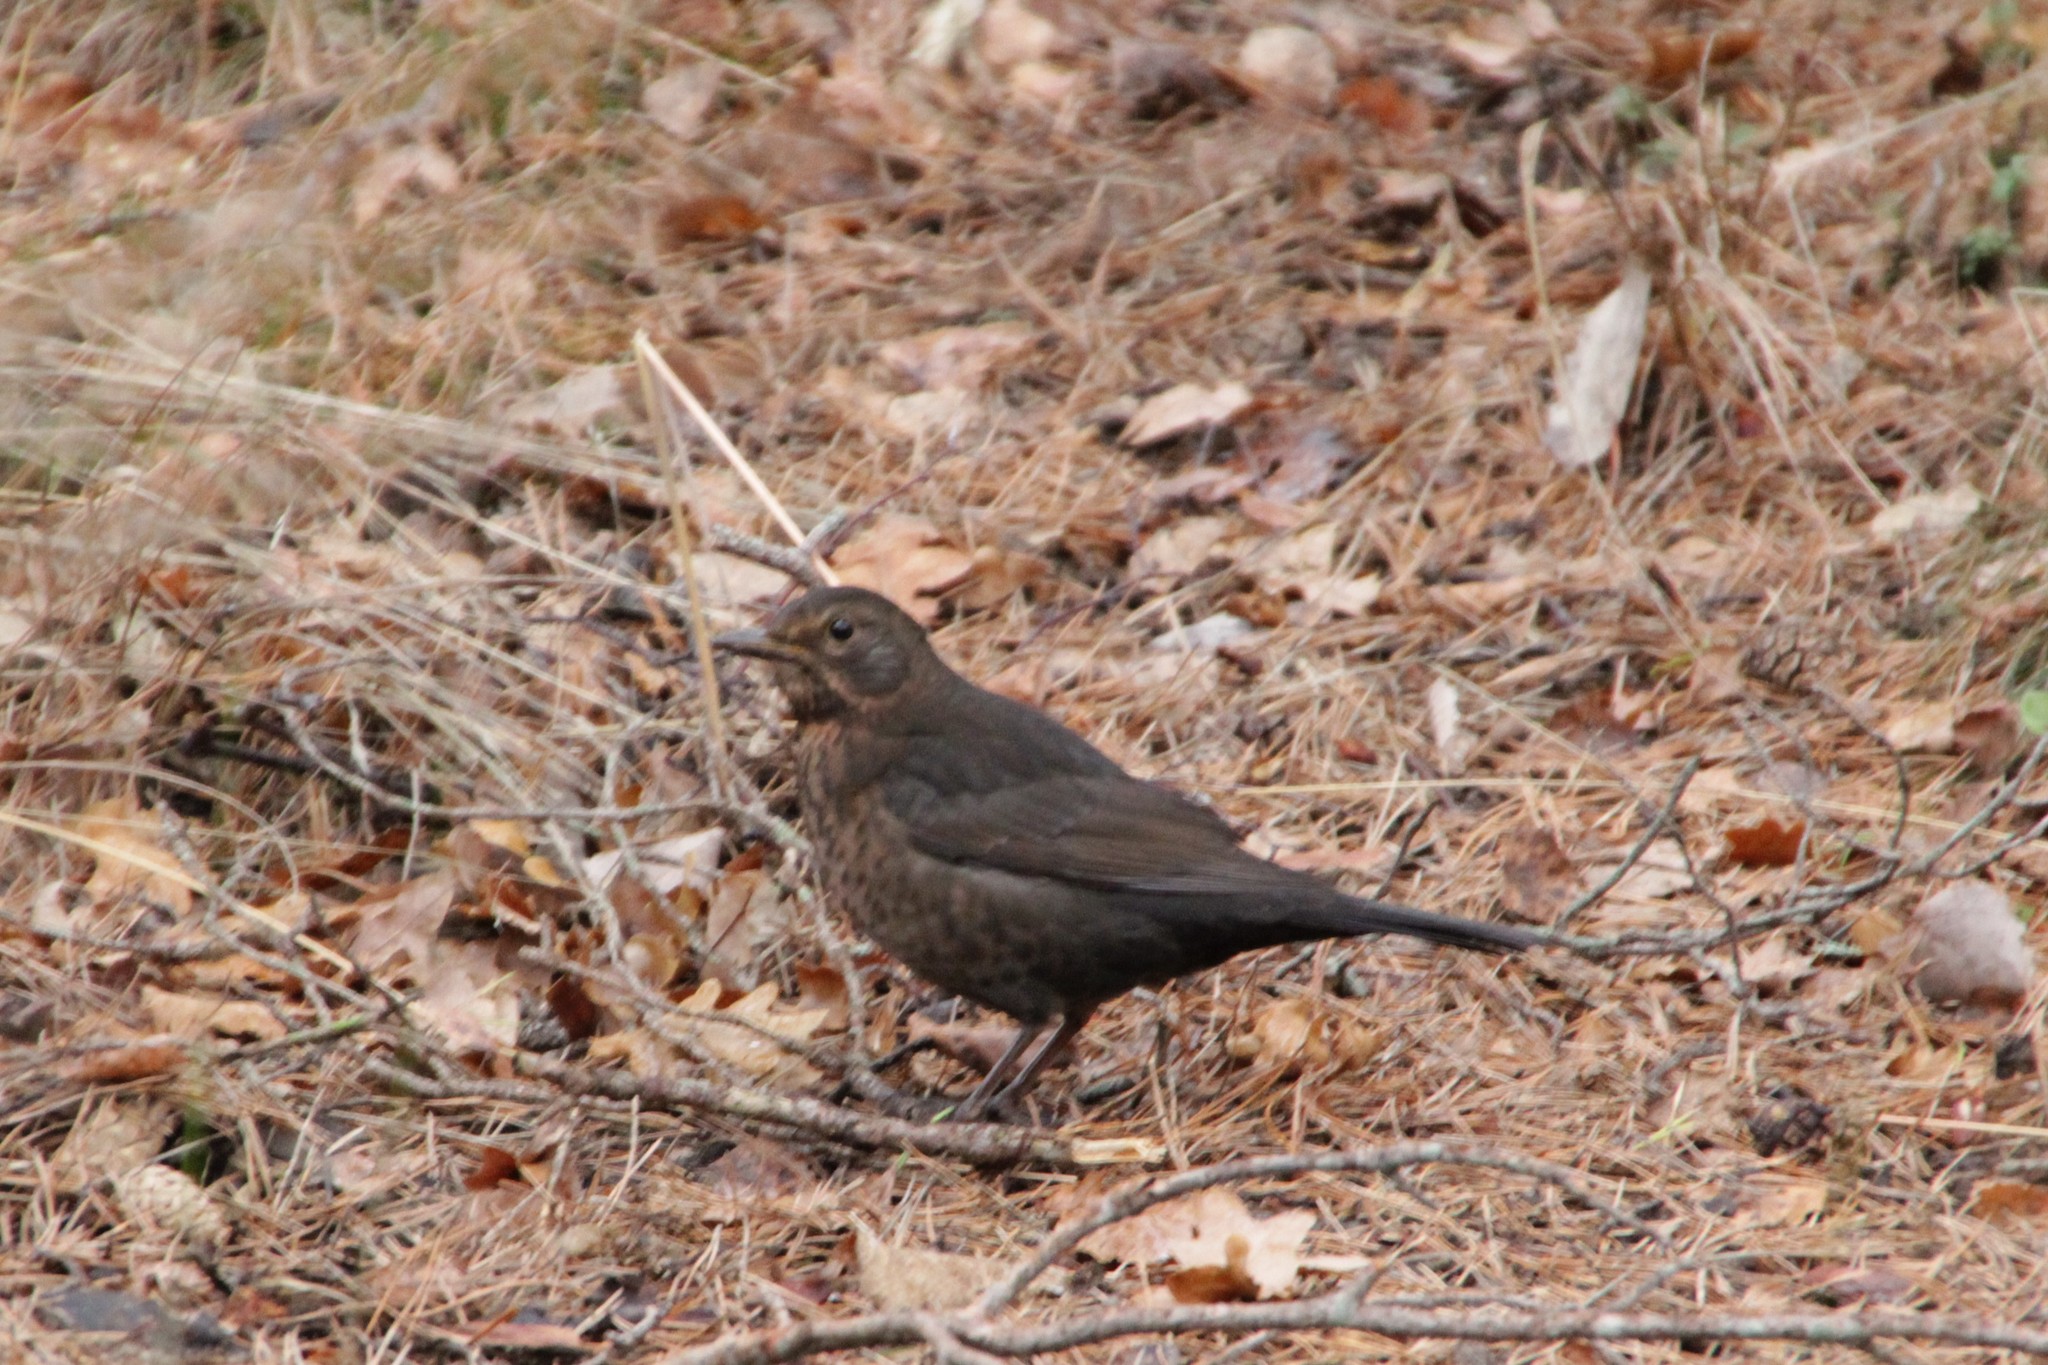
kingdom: Animalia
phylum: Chordata
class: Aves
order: Passeriformes
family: Turdidae
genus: Turdus
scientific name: Turdus merula
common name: Common blackbird
